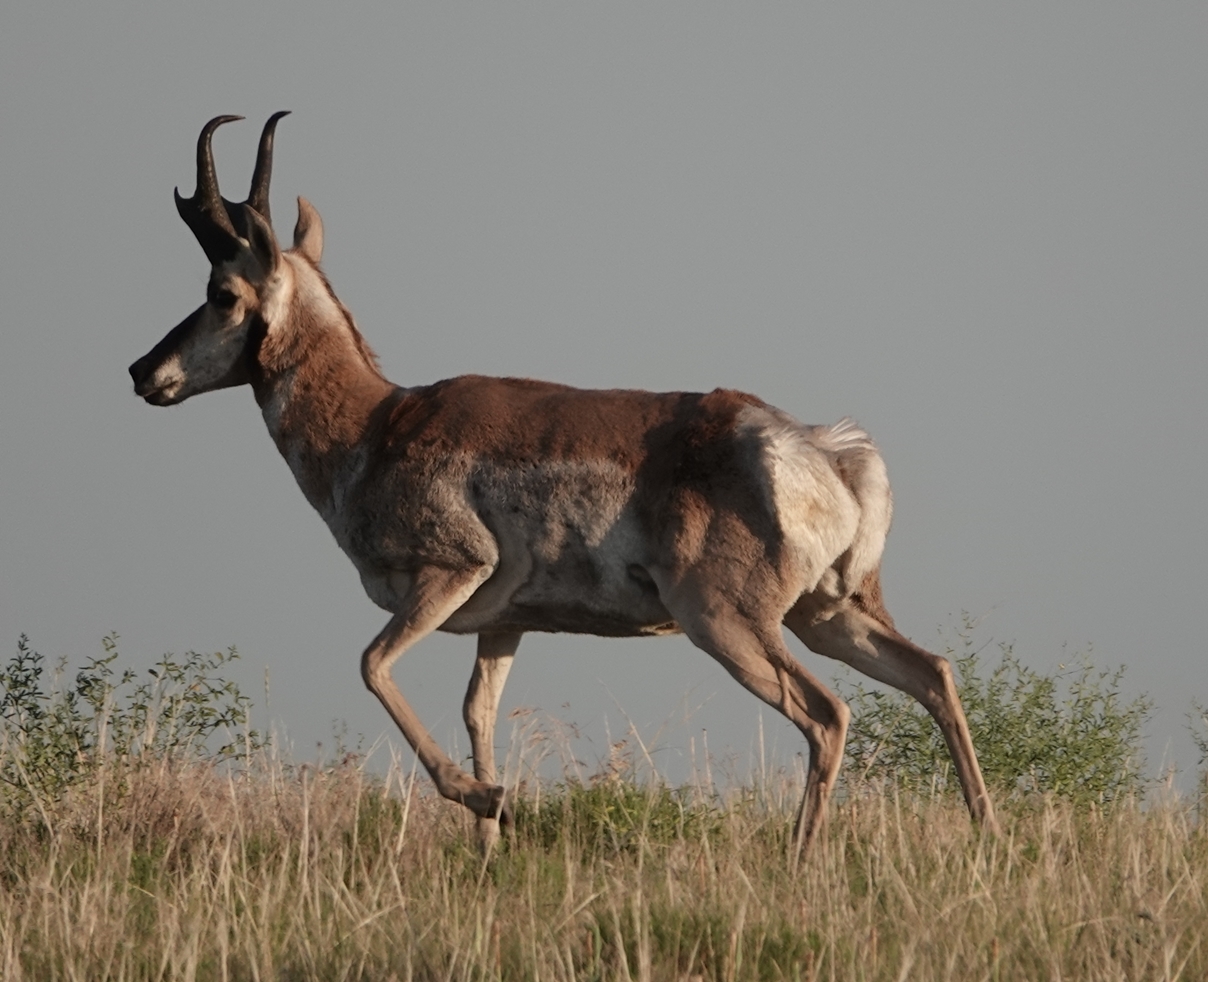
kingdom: Animalia
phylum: Chordata
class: Mammalia
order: Artiodactyla
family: Antilocapridae
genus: Antilocapra
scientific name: Antilocapra americana
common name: Pronghorn
